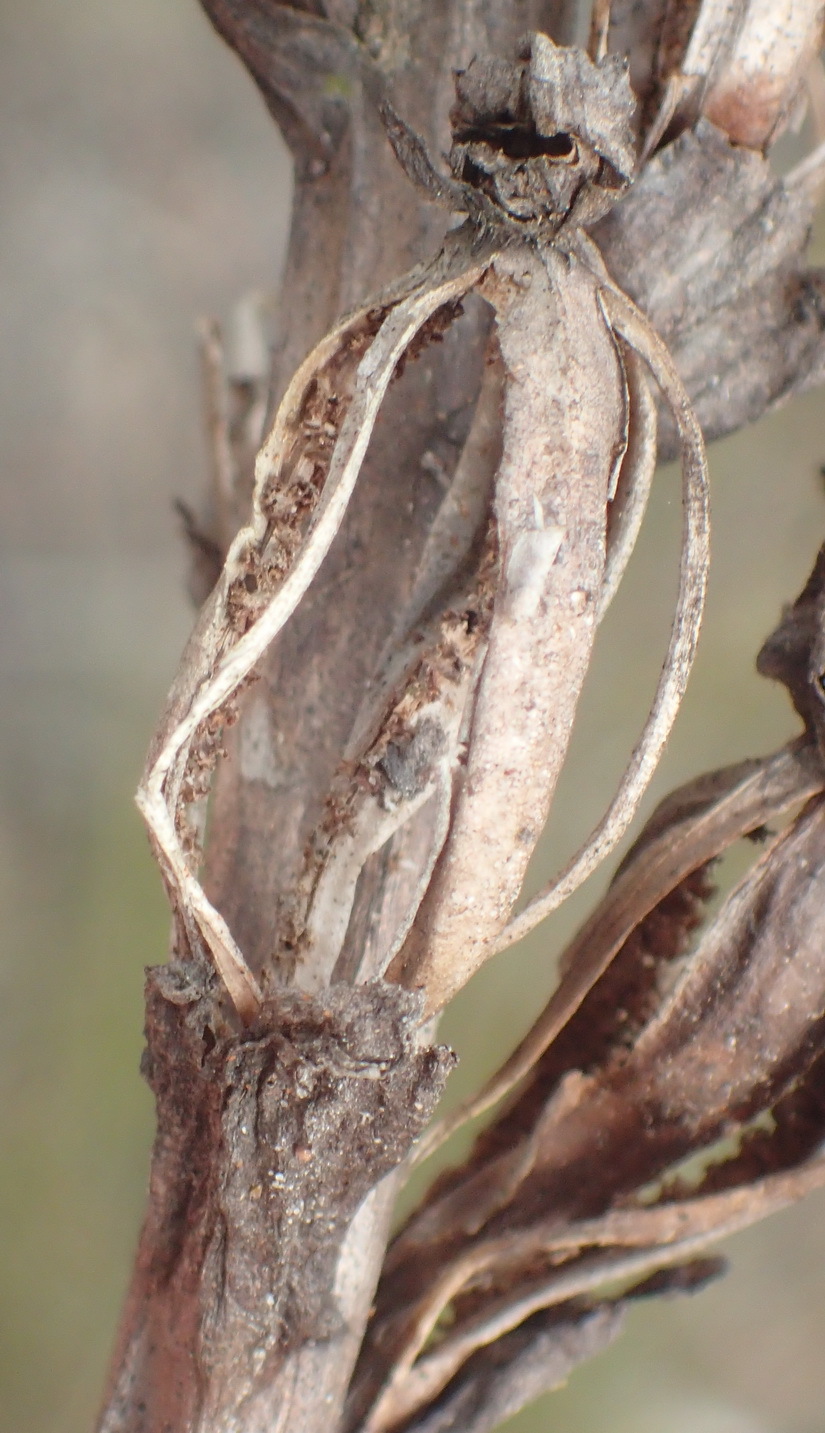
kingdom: Plantae
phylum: Tracheophyta
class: Liliopsida
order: Asparagales
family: Orchidaceae
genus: Disa
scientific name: Disa cornuta
